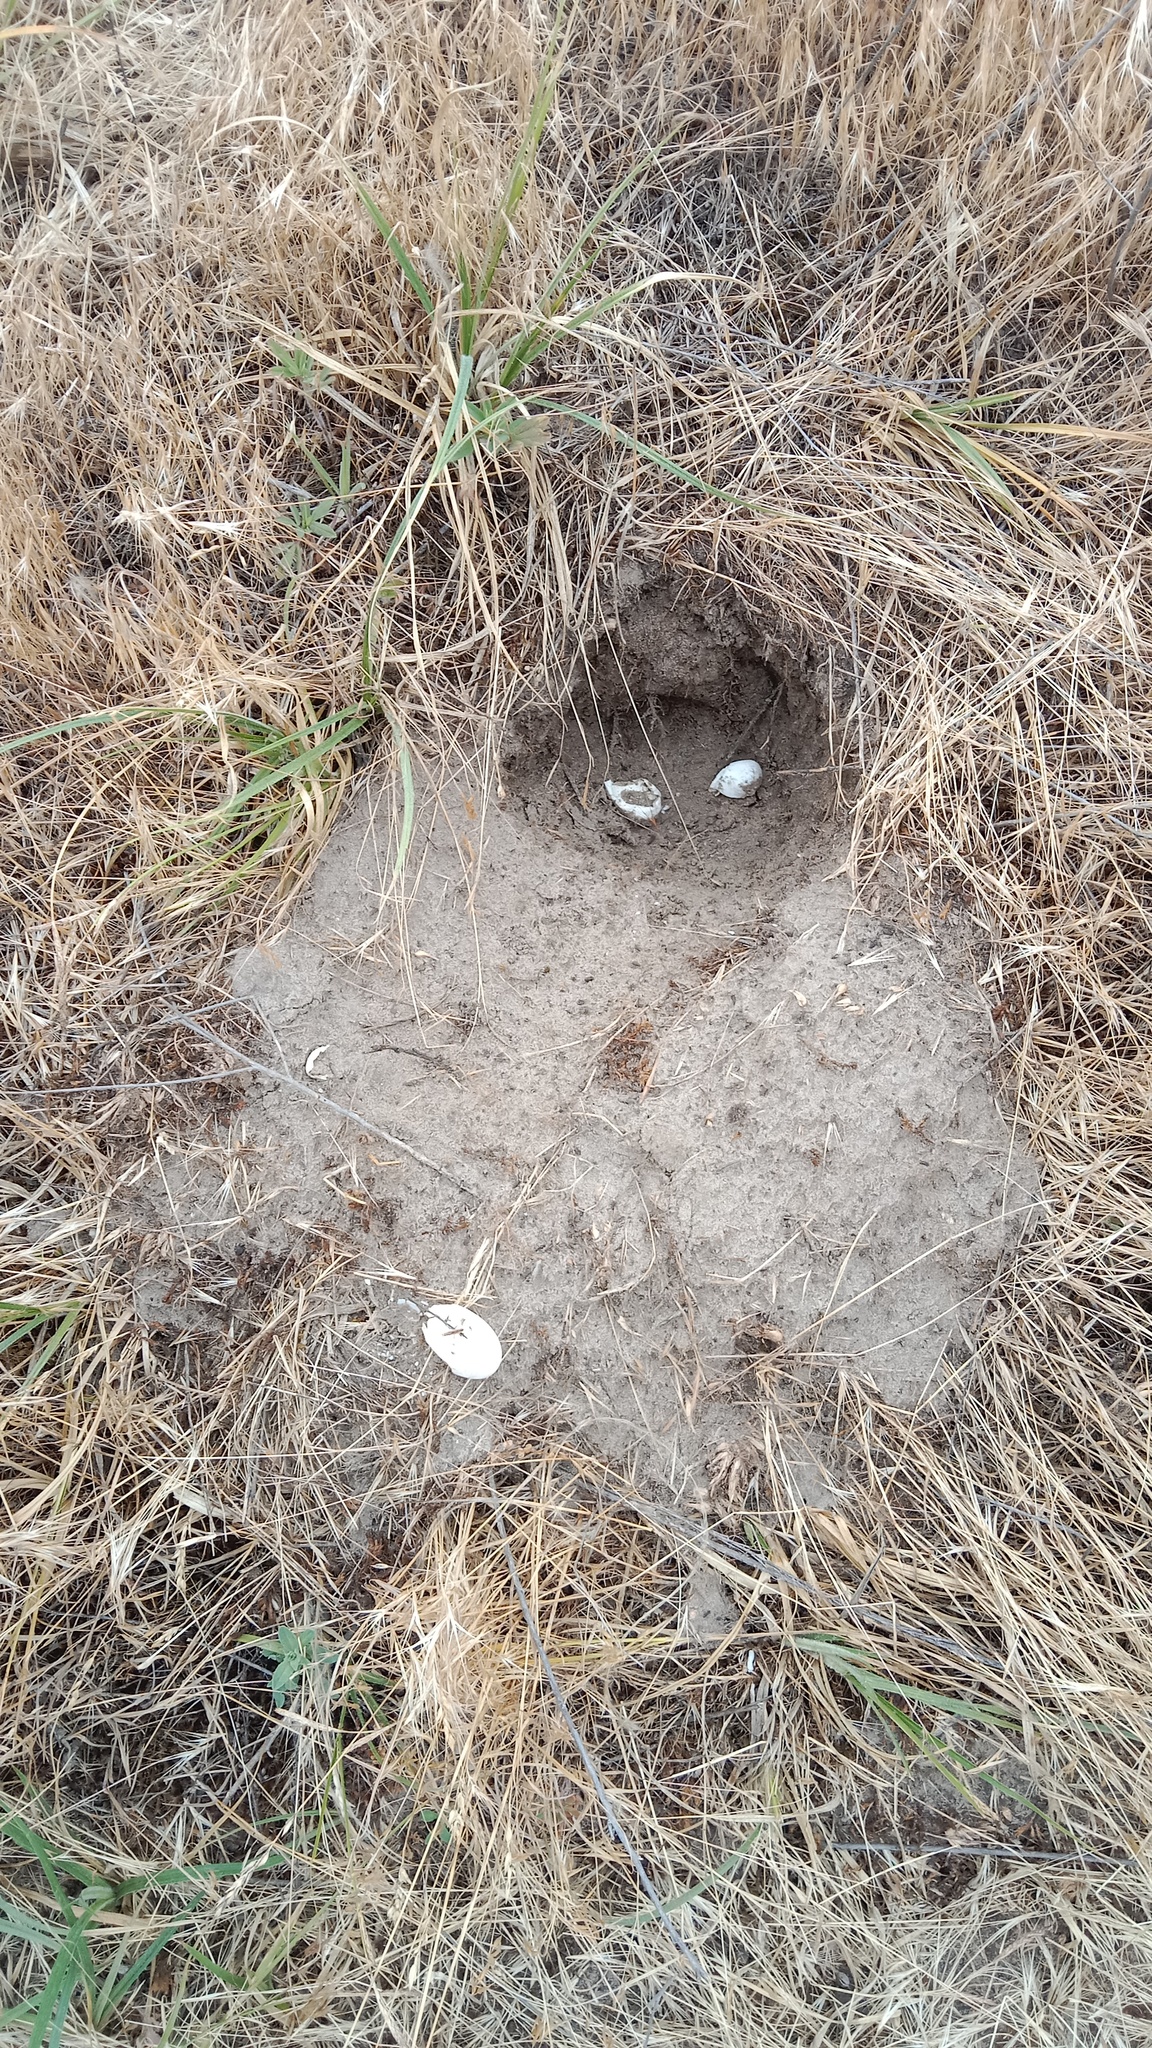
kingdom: Animalia
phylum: Chordata
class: Testudines
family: Emydidae
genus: Emys
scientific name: Emys orbicularis
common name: European pond turtle
